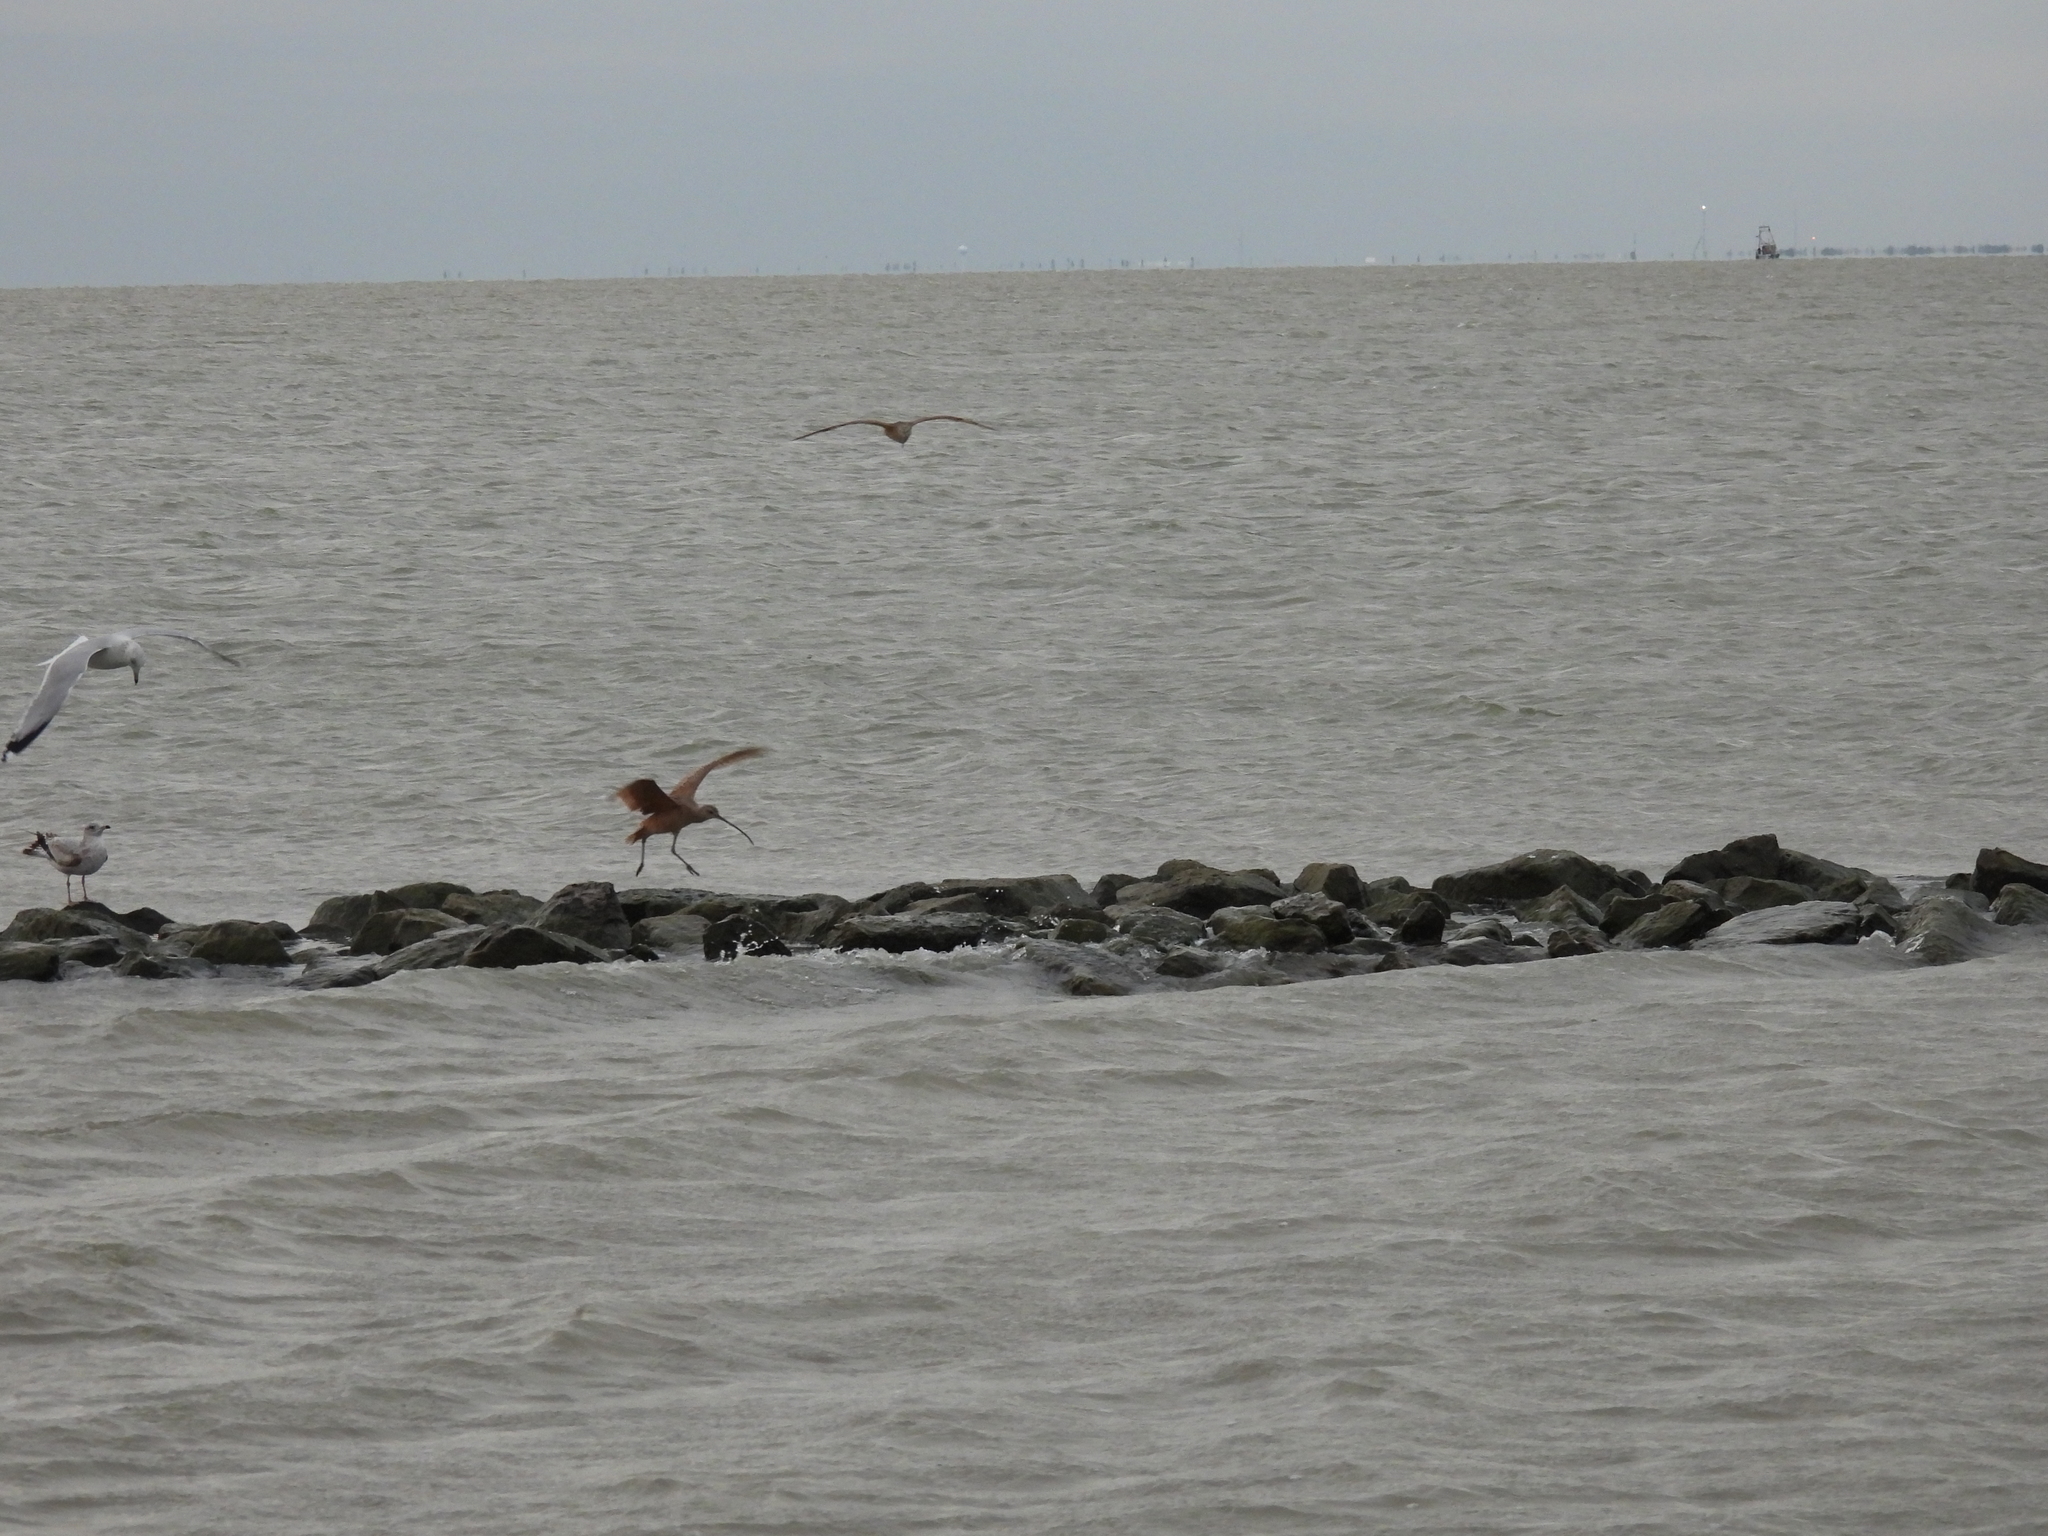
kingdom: Animalia
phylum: Chordata
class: Aves
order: Charadriiformes
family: Scolopacidae
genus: Numenius
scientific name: Numenius americanus
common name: Long-billed curlew
